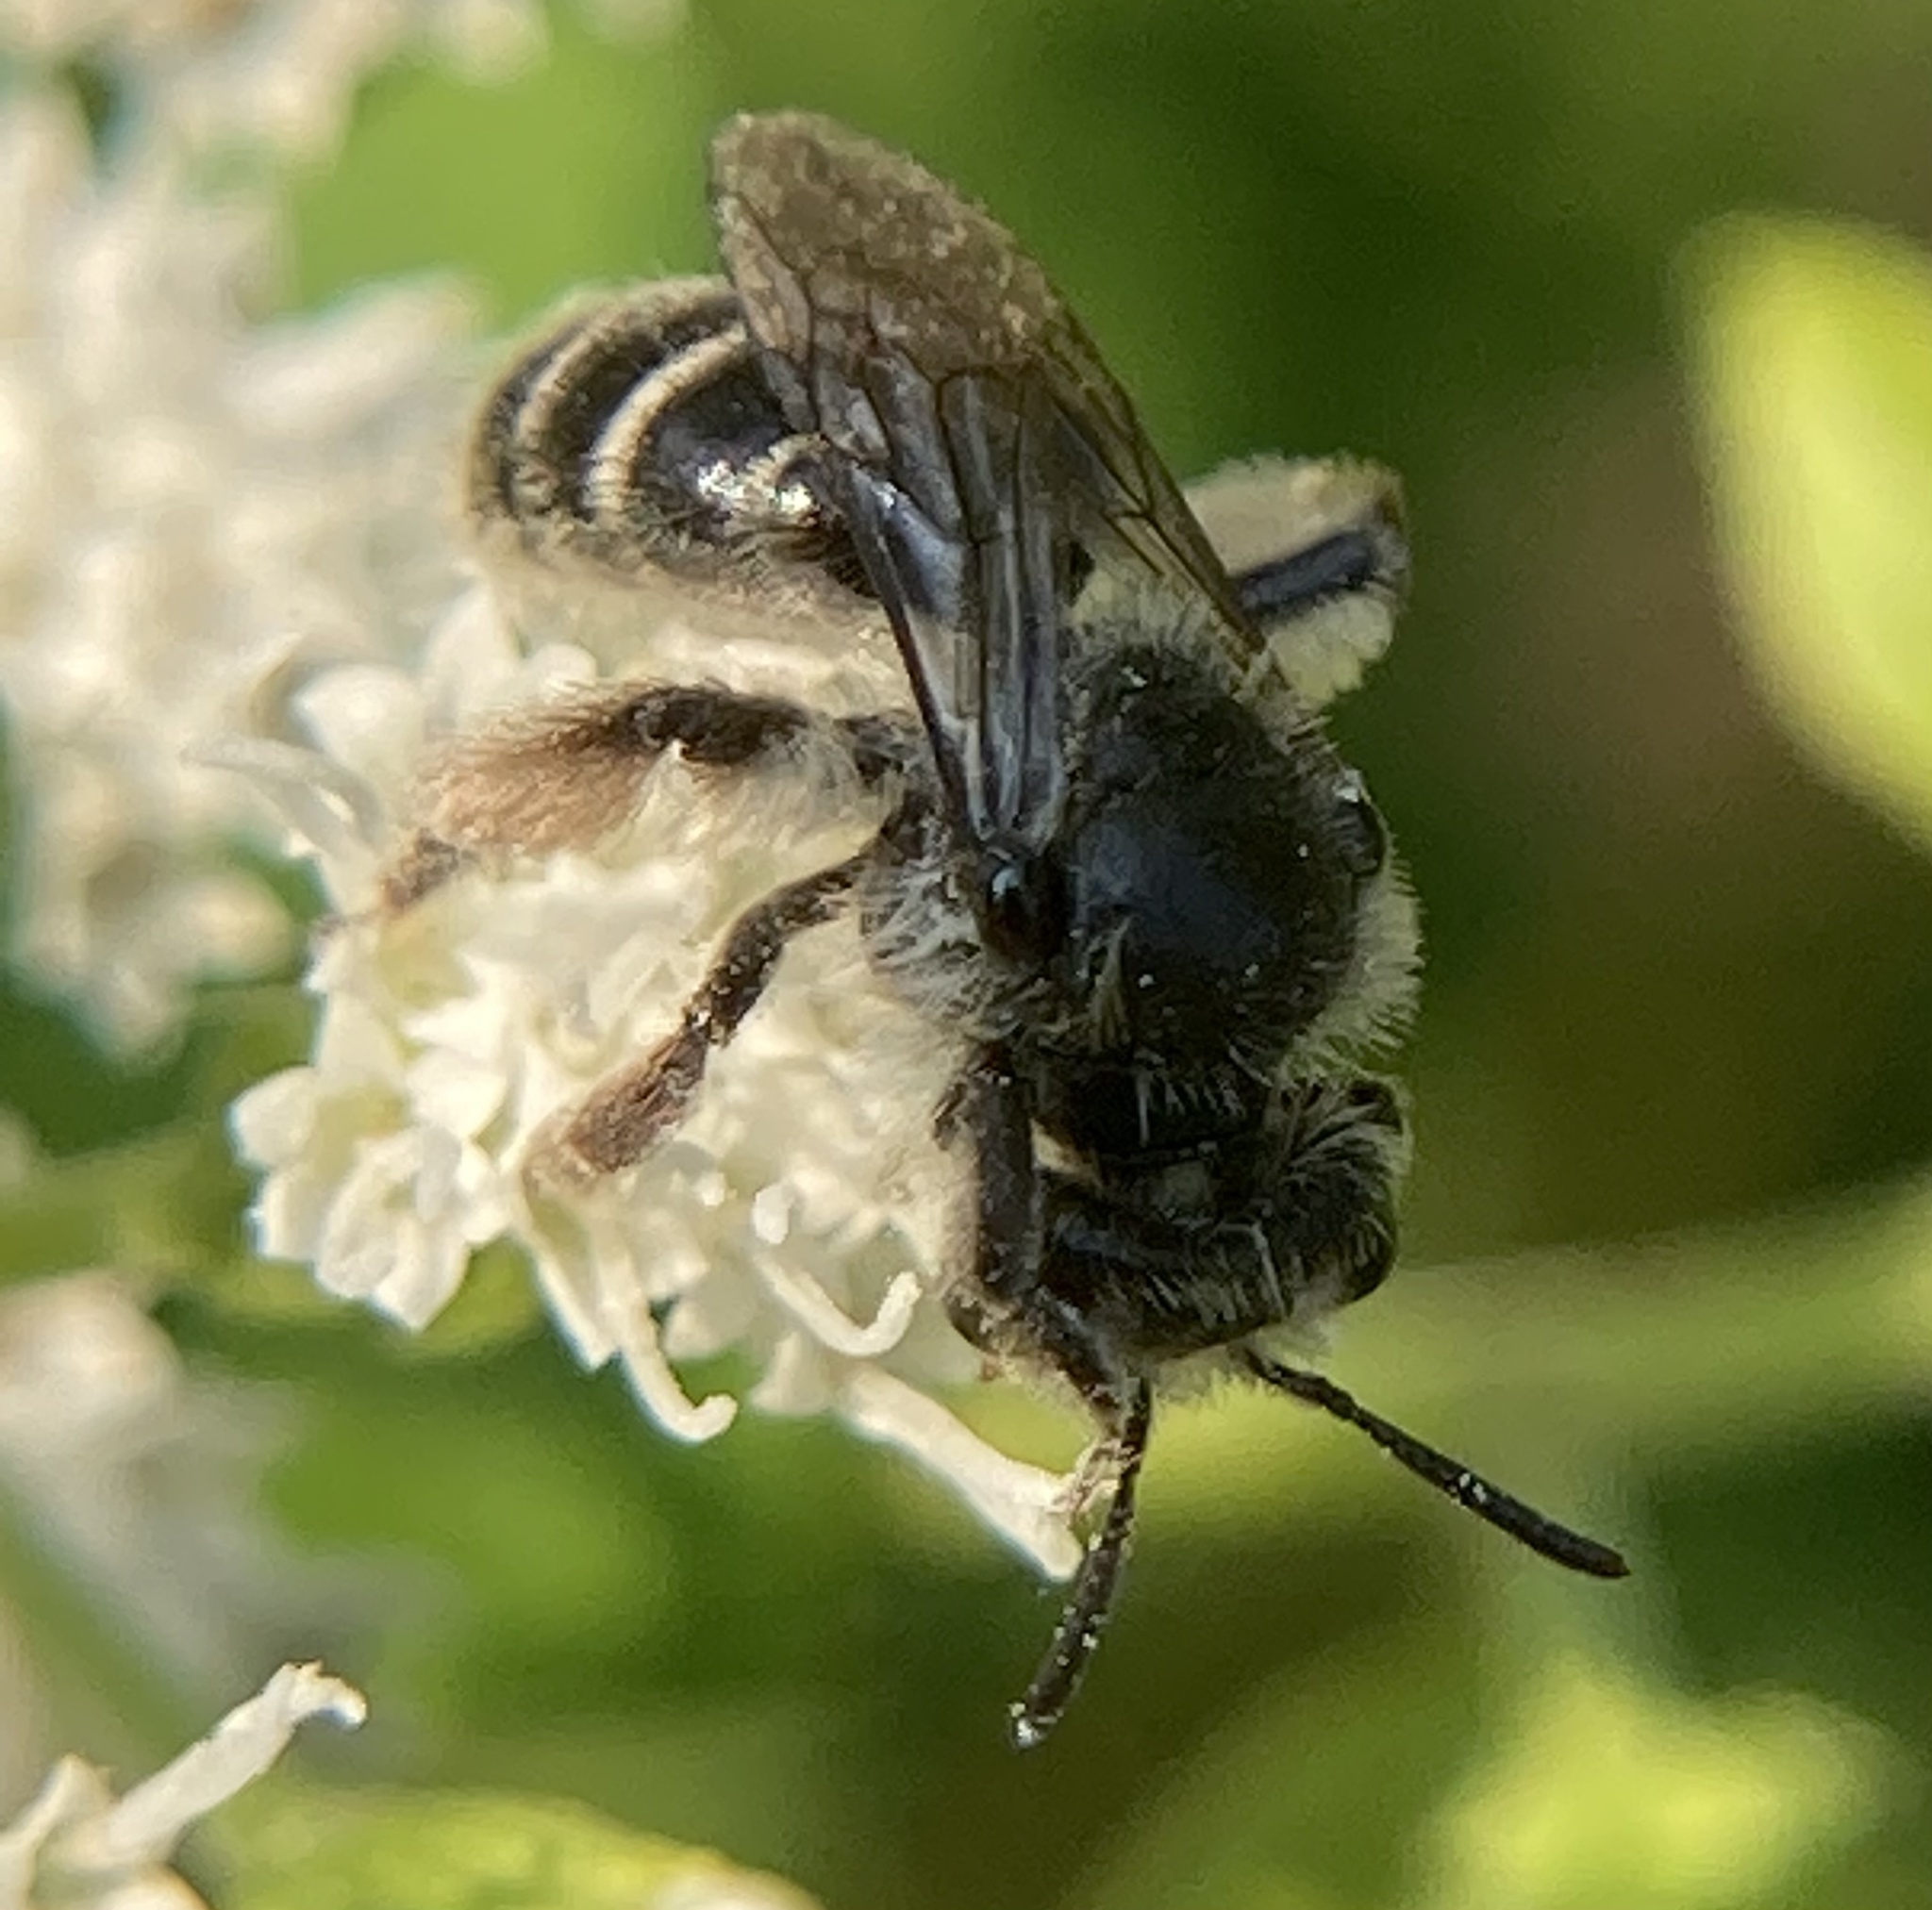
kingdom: Animalia
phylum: Arthropoda
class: Insecta
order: Hymenoptera
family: Andrenidae
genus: Andrena
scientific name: Andrena
